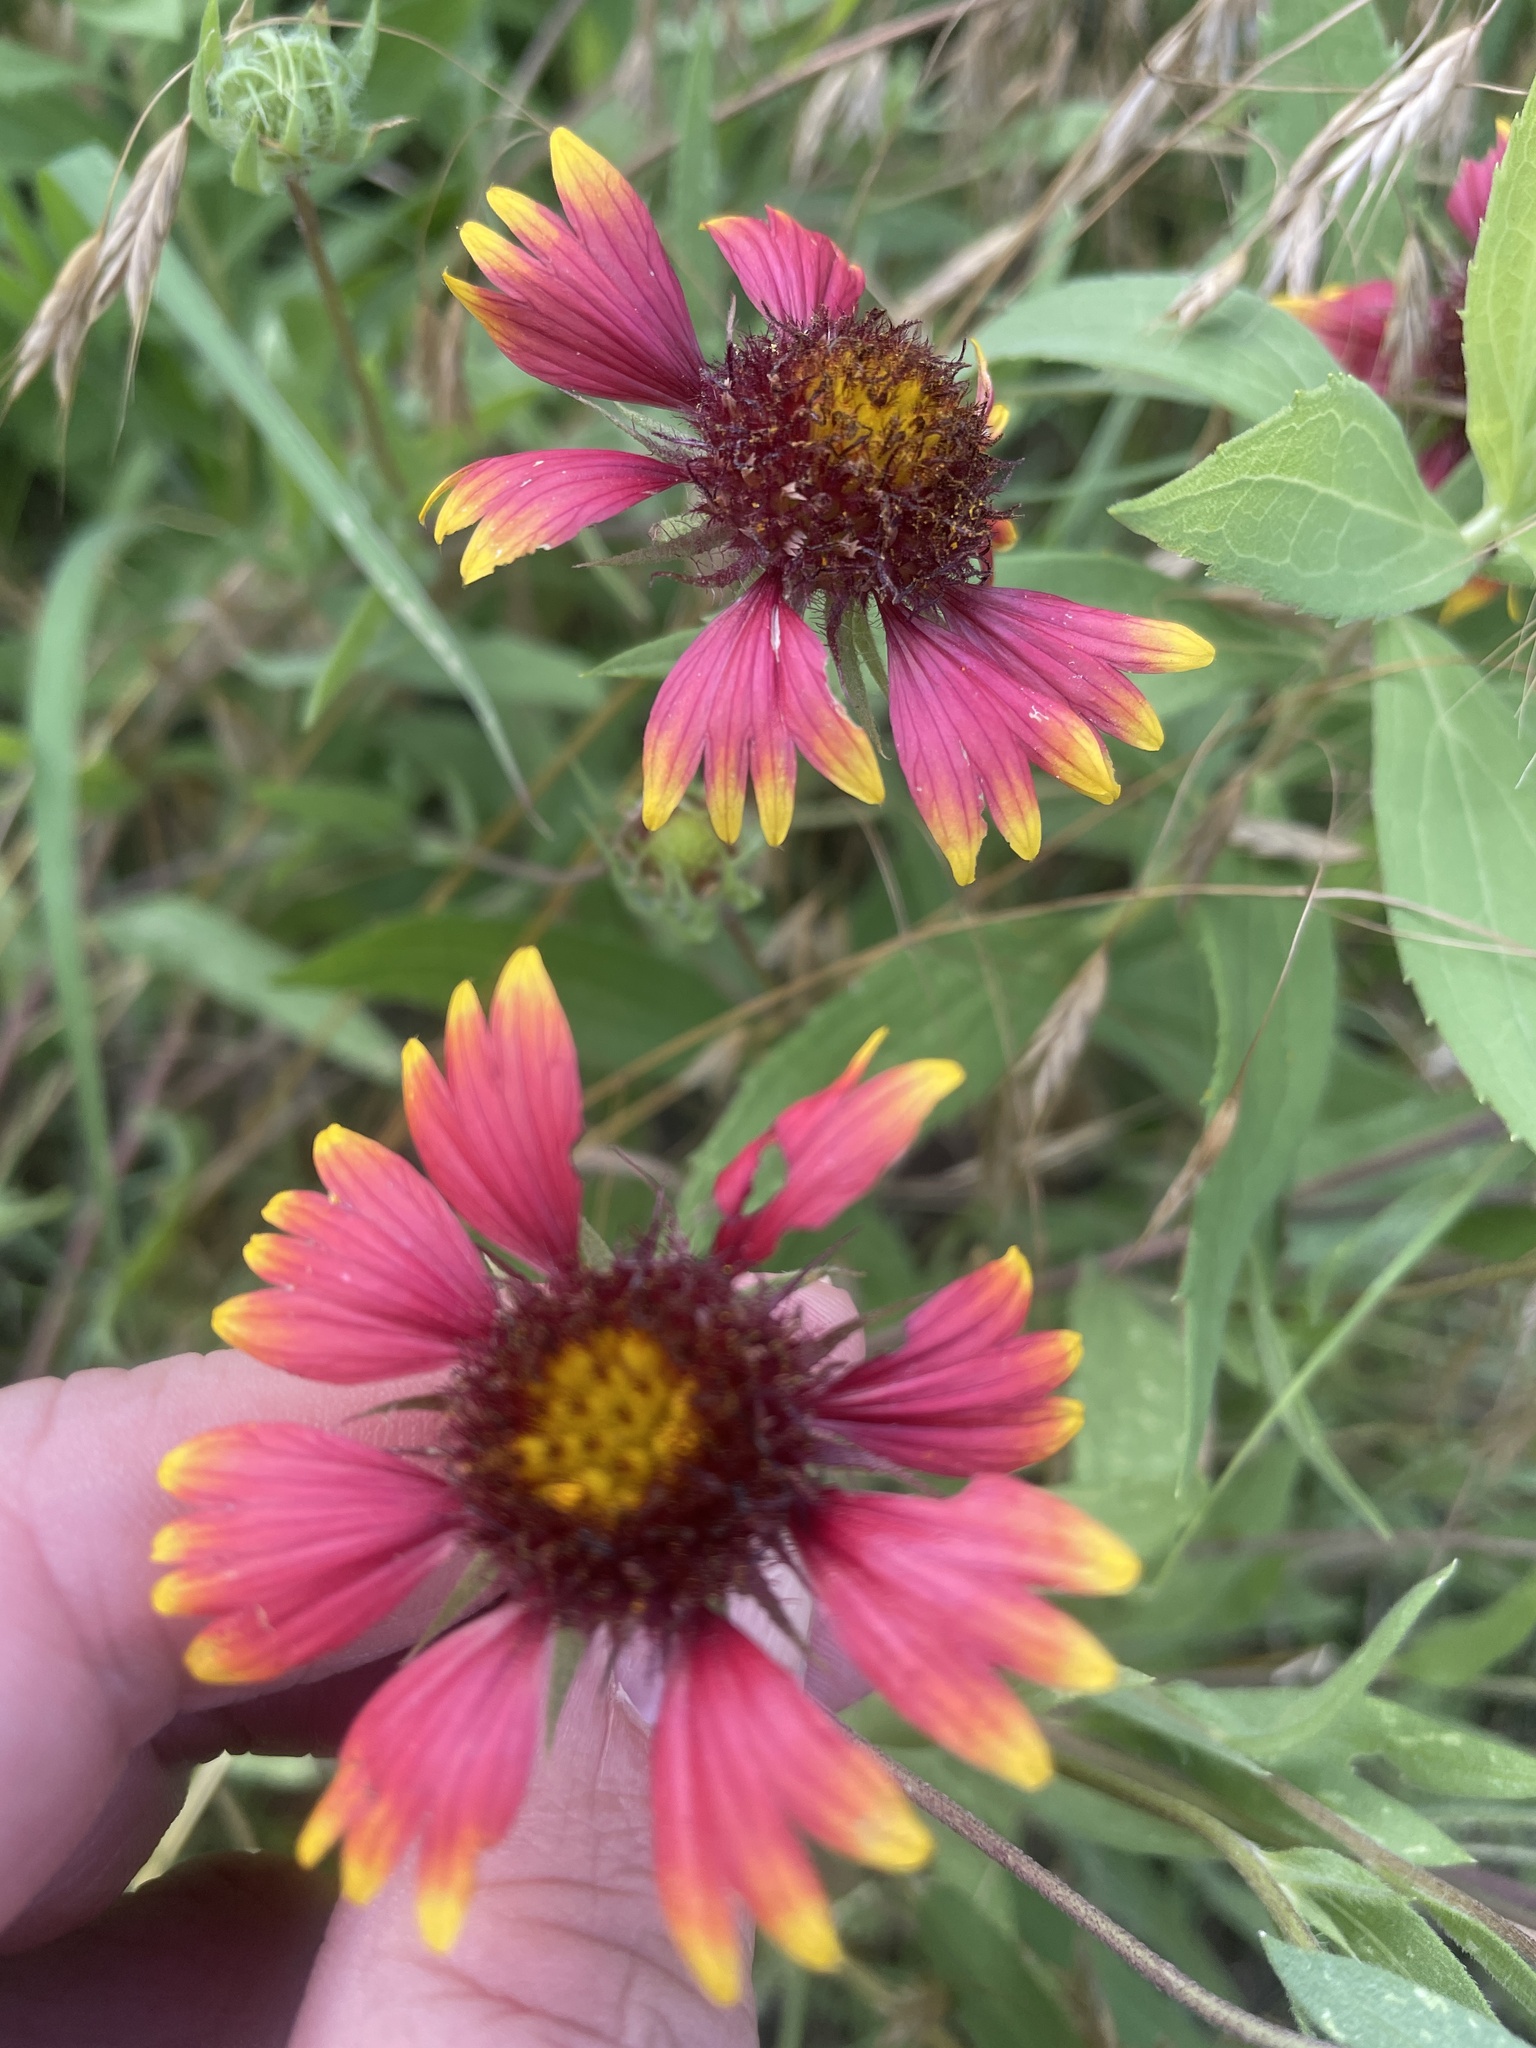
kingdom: Plantae
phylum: Tracheophyta
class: Magnoliopsida
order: Asterales
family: Asteraceae
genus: Gaillardia
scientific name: Gaillardia pulchella
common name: Firewheel
